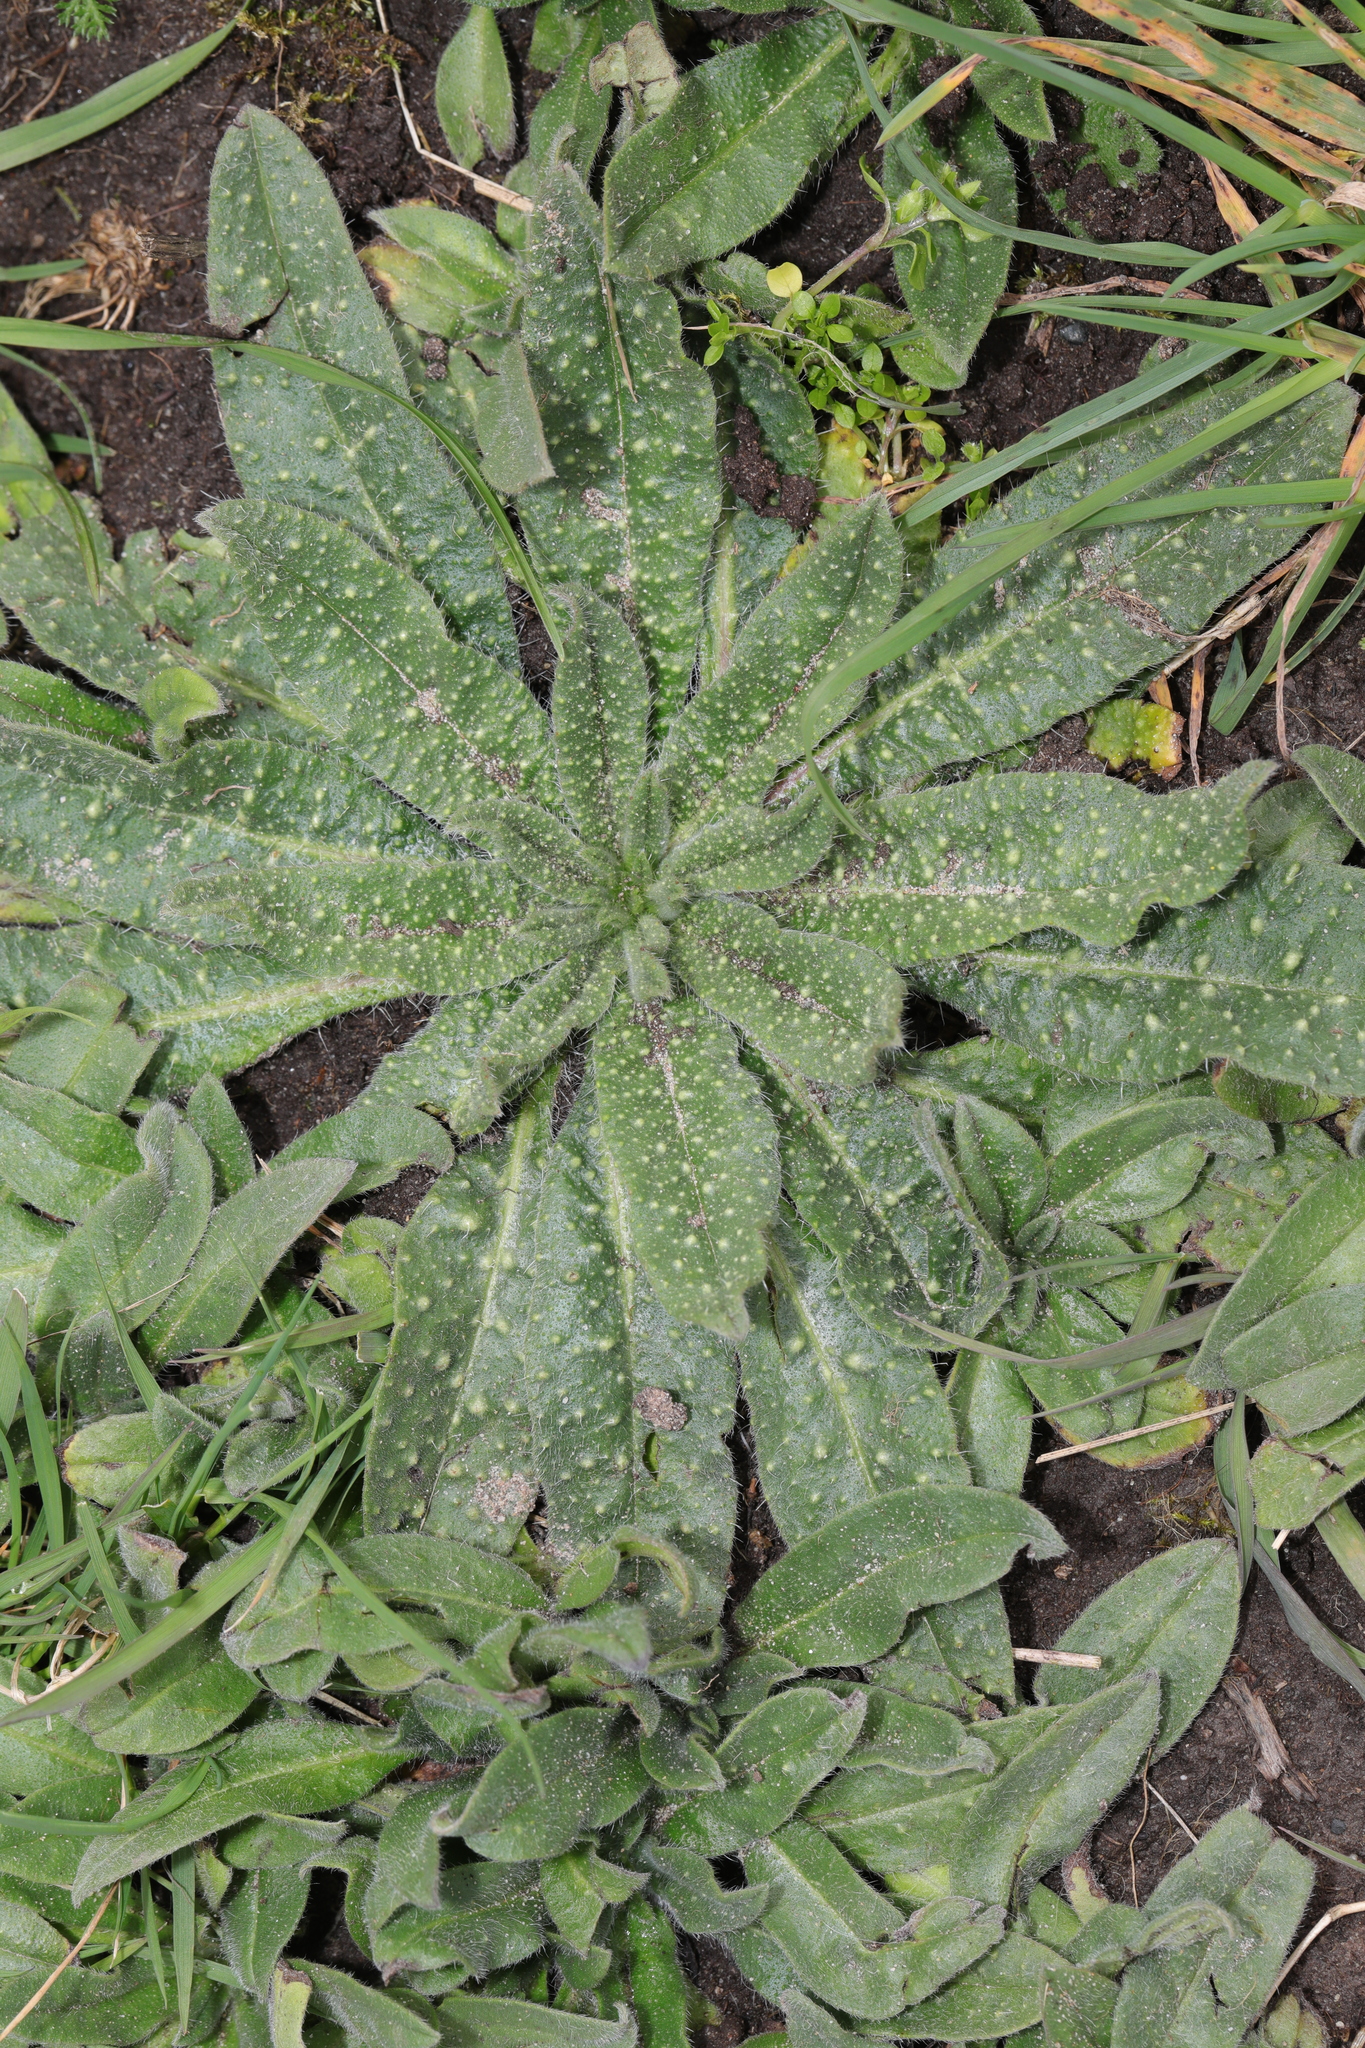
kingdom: Plantae
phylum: Tracheophyta
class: Magnoliopsida
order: Asterales
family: Asteraceae
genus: Helminthotheca
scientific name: Helminthotheca echioides
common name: Ox-tongue
